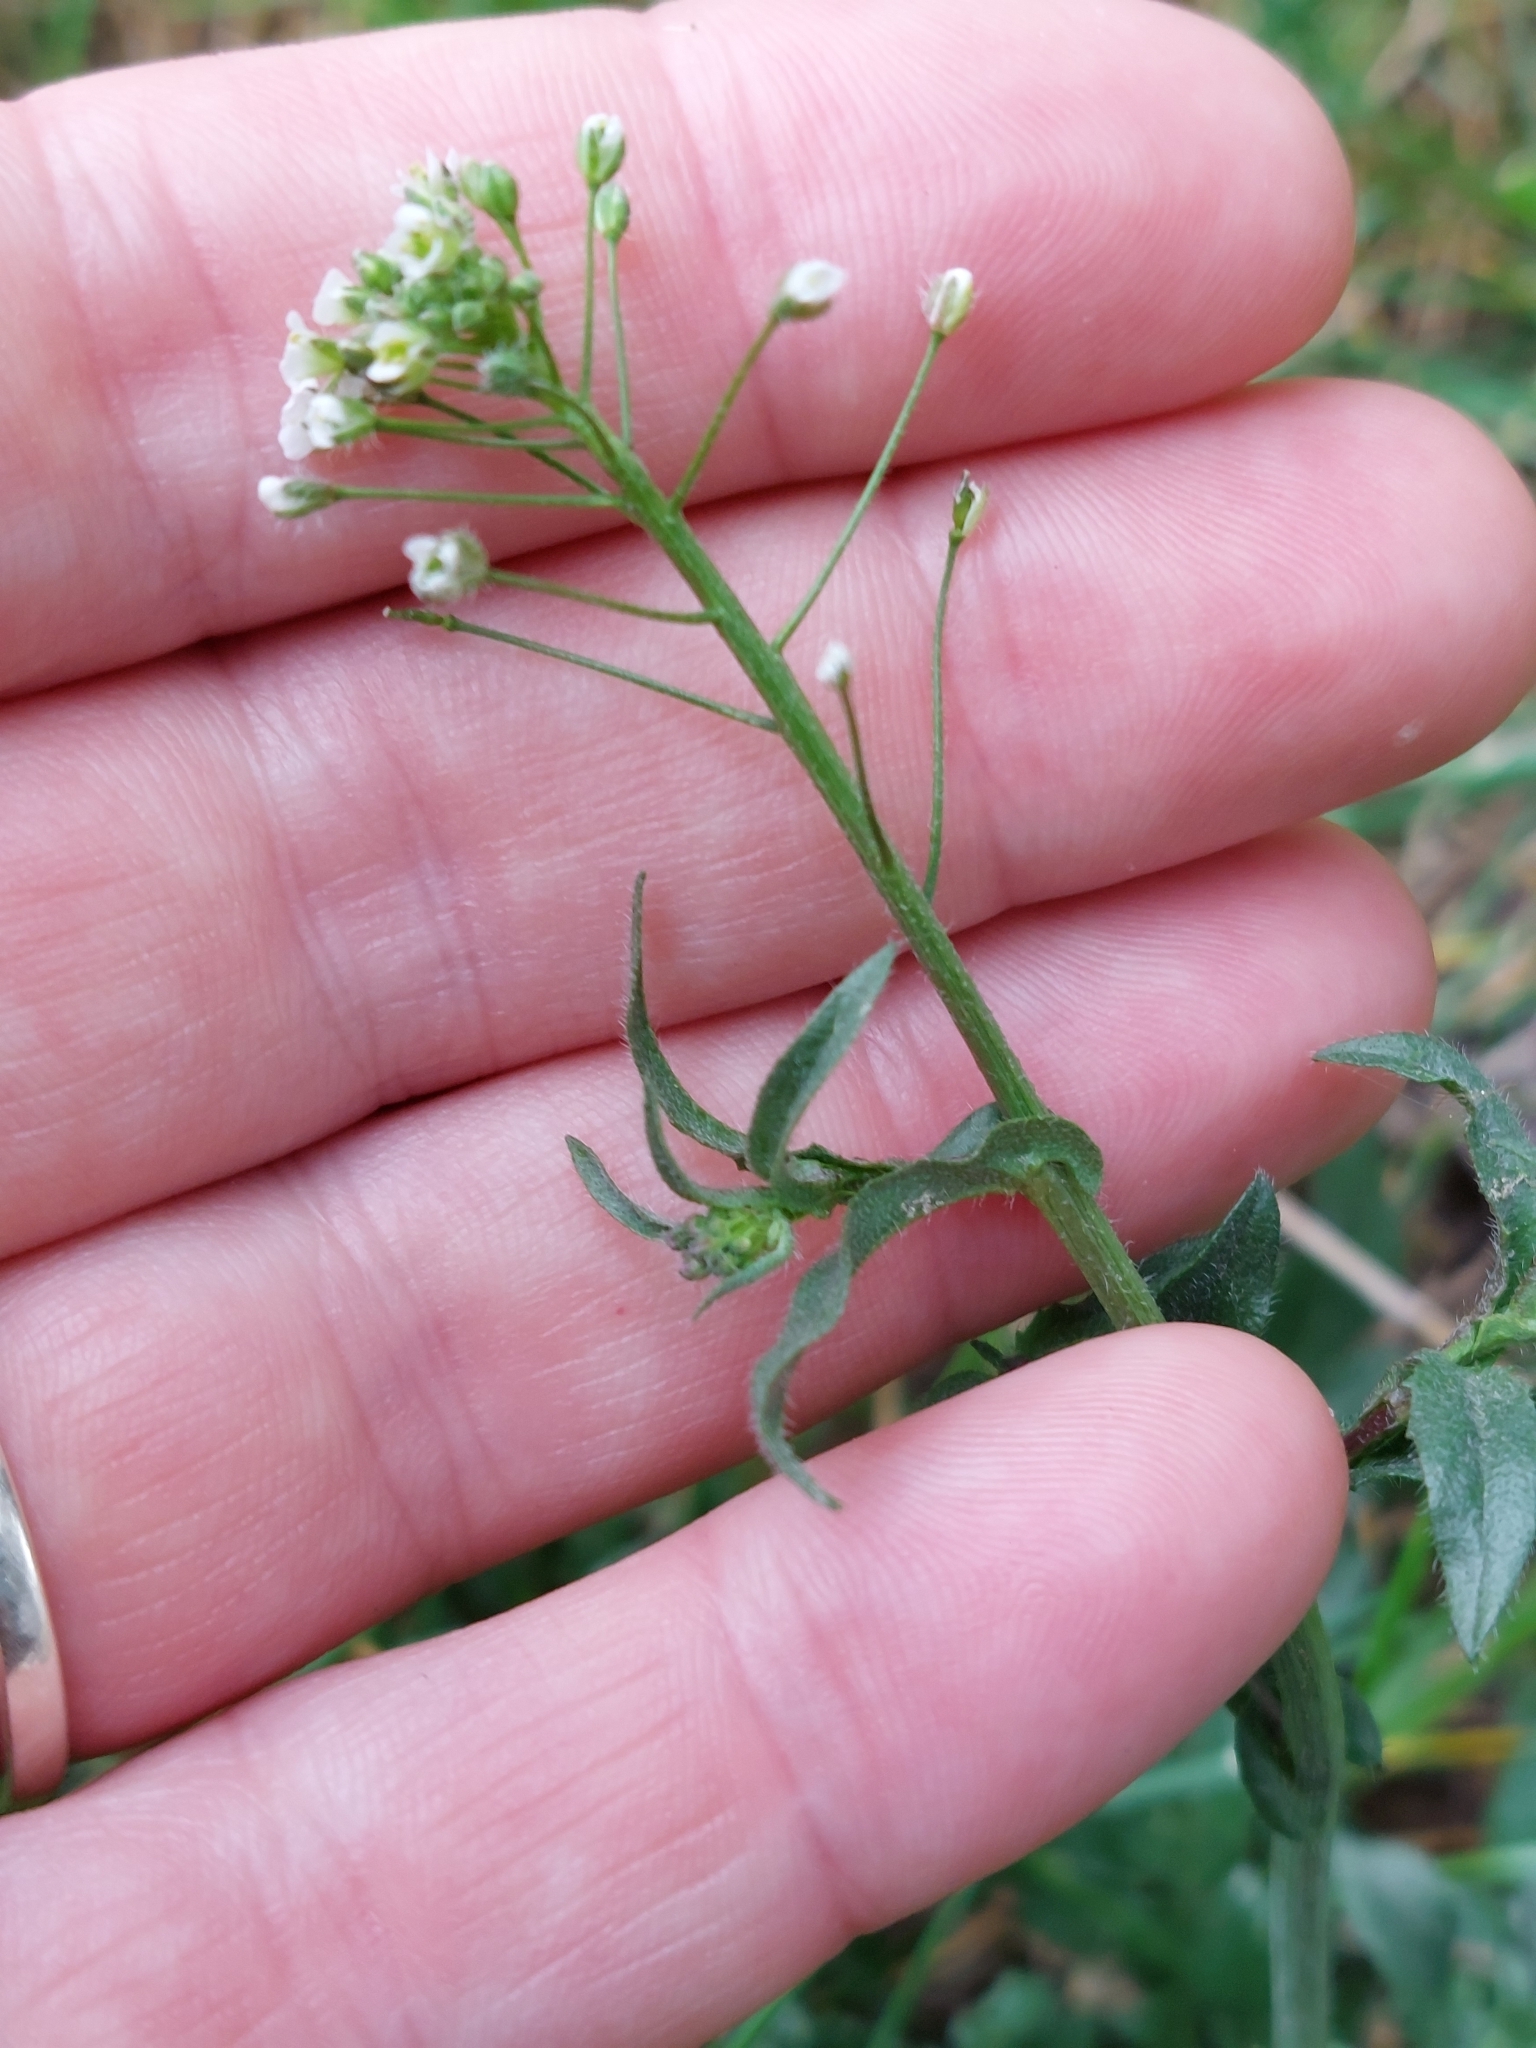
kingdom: Plantae
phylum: Tracheophyta
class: Magnoliopsida
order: Brassicales
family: Brassicaceae
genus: Capsella
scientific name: Capsella bursa-pastoris
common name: Shepherd's purse
